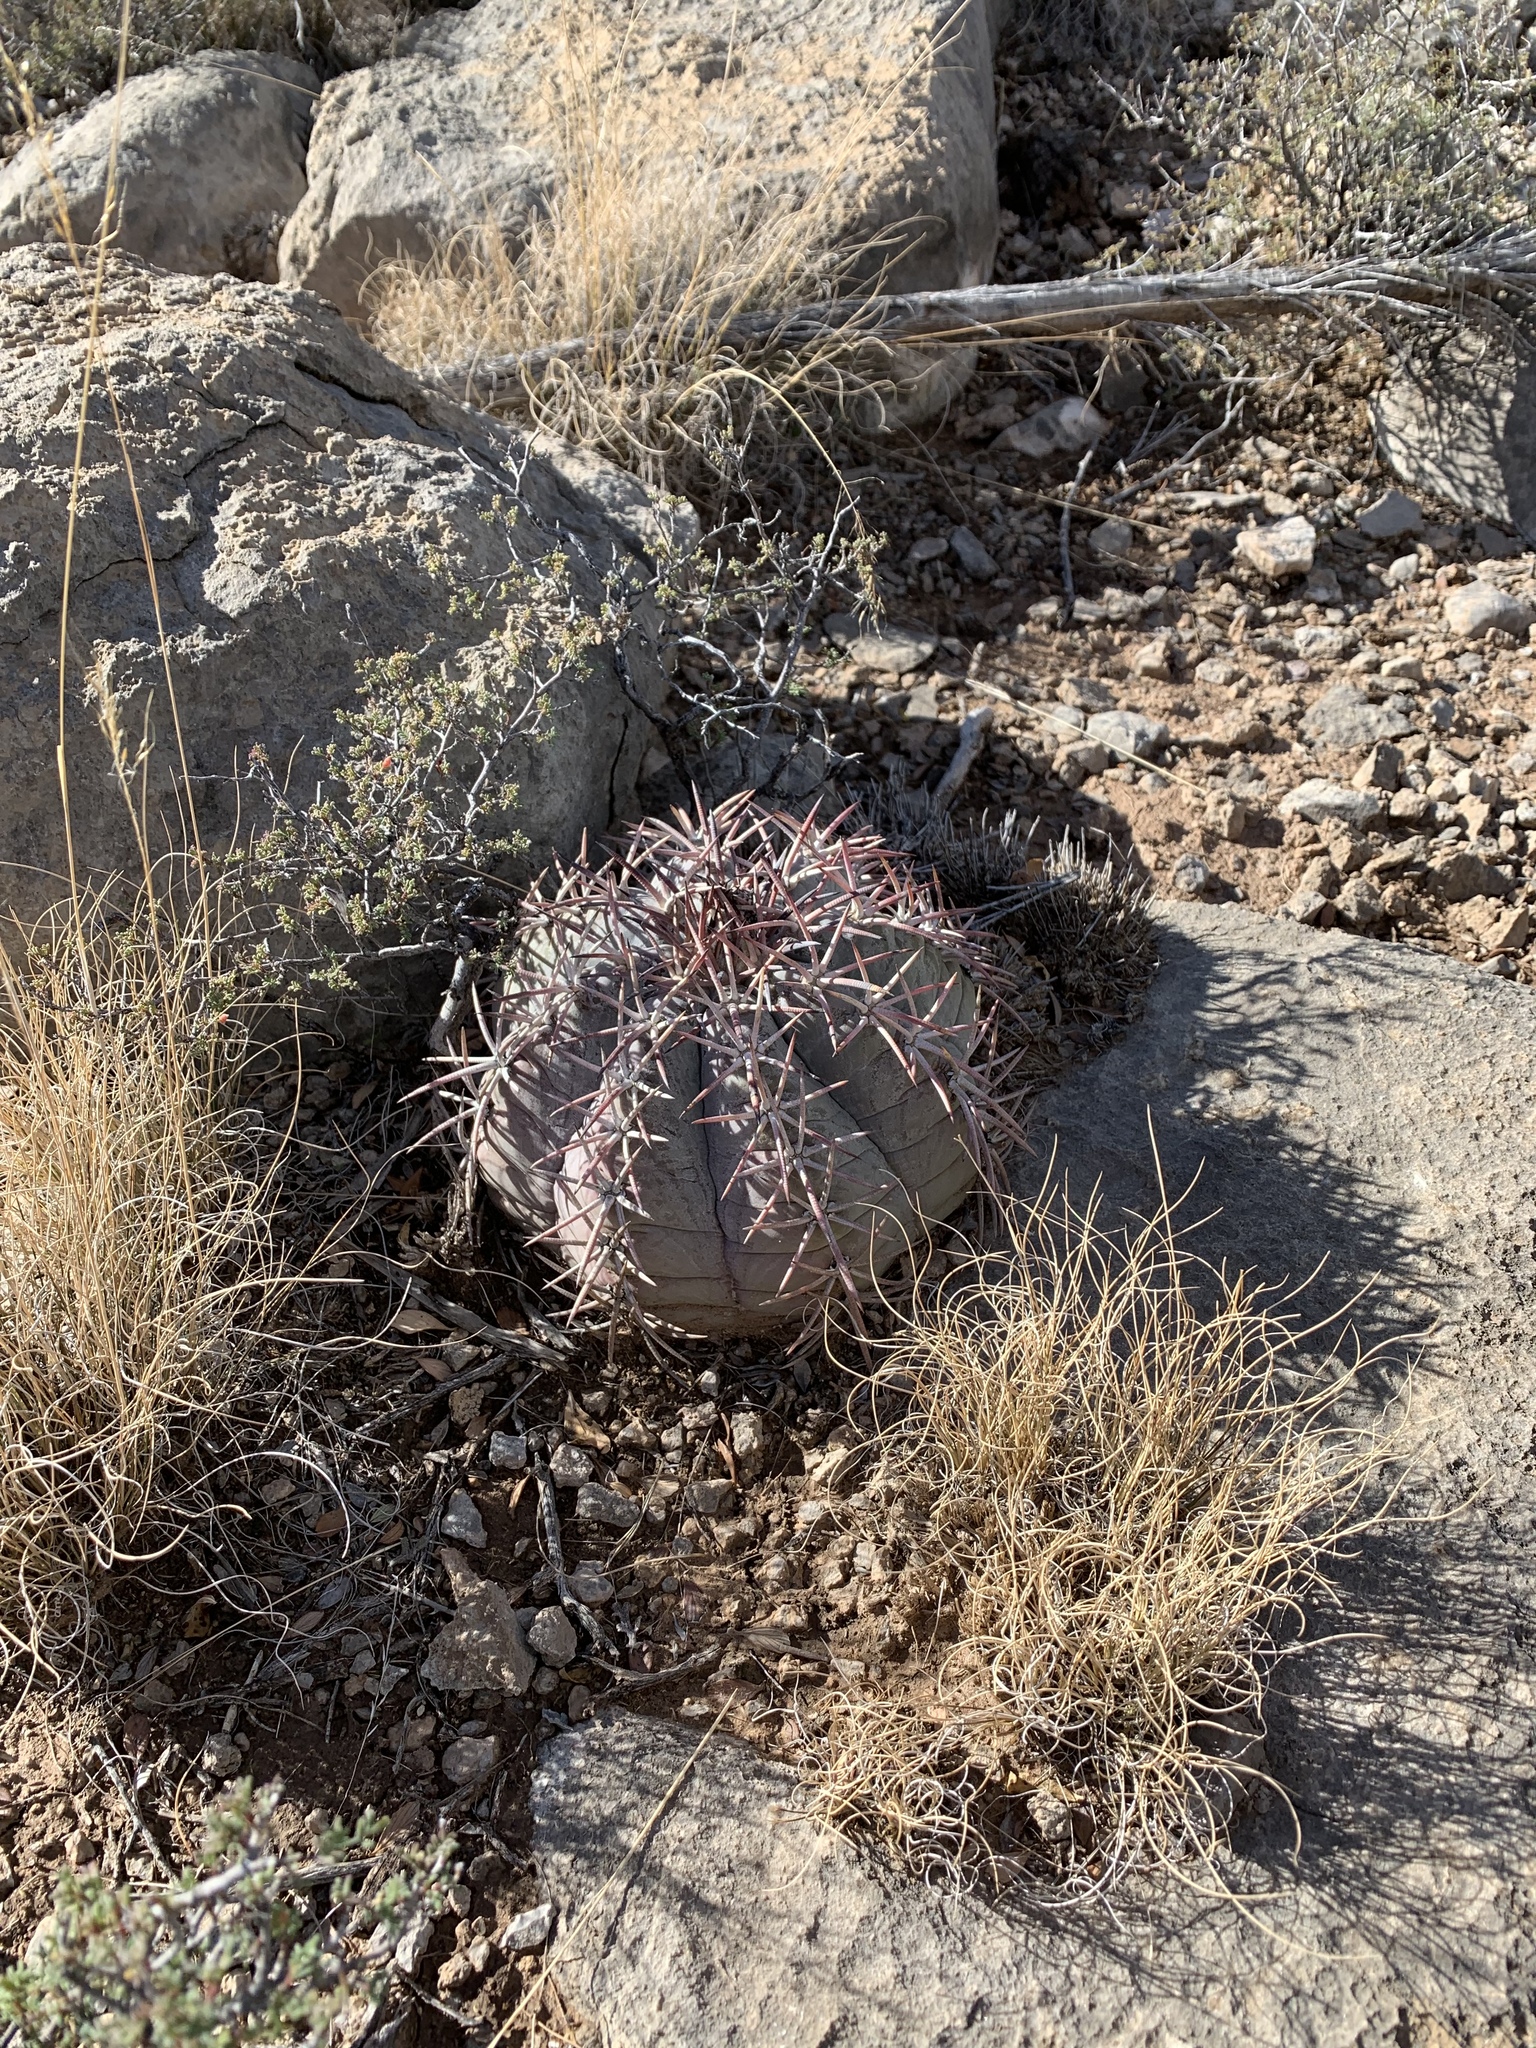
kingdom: Plantae
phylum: Tracheophyta
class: Magnoliopsida
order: Caryophyllales
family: Cactaceae
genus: Echinocactus
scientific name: Echinocactus horizonthalonius
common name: Devilshead
